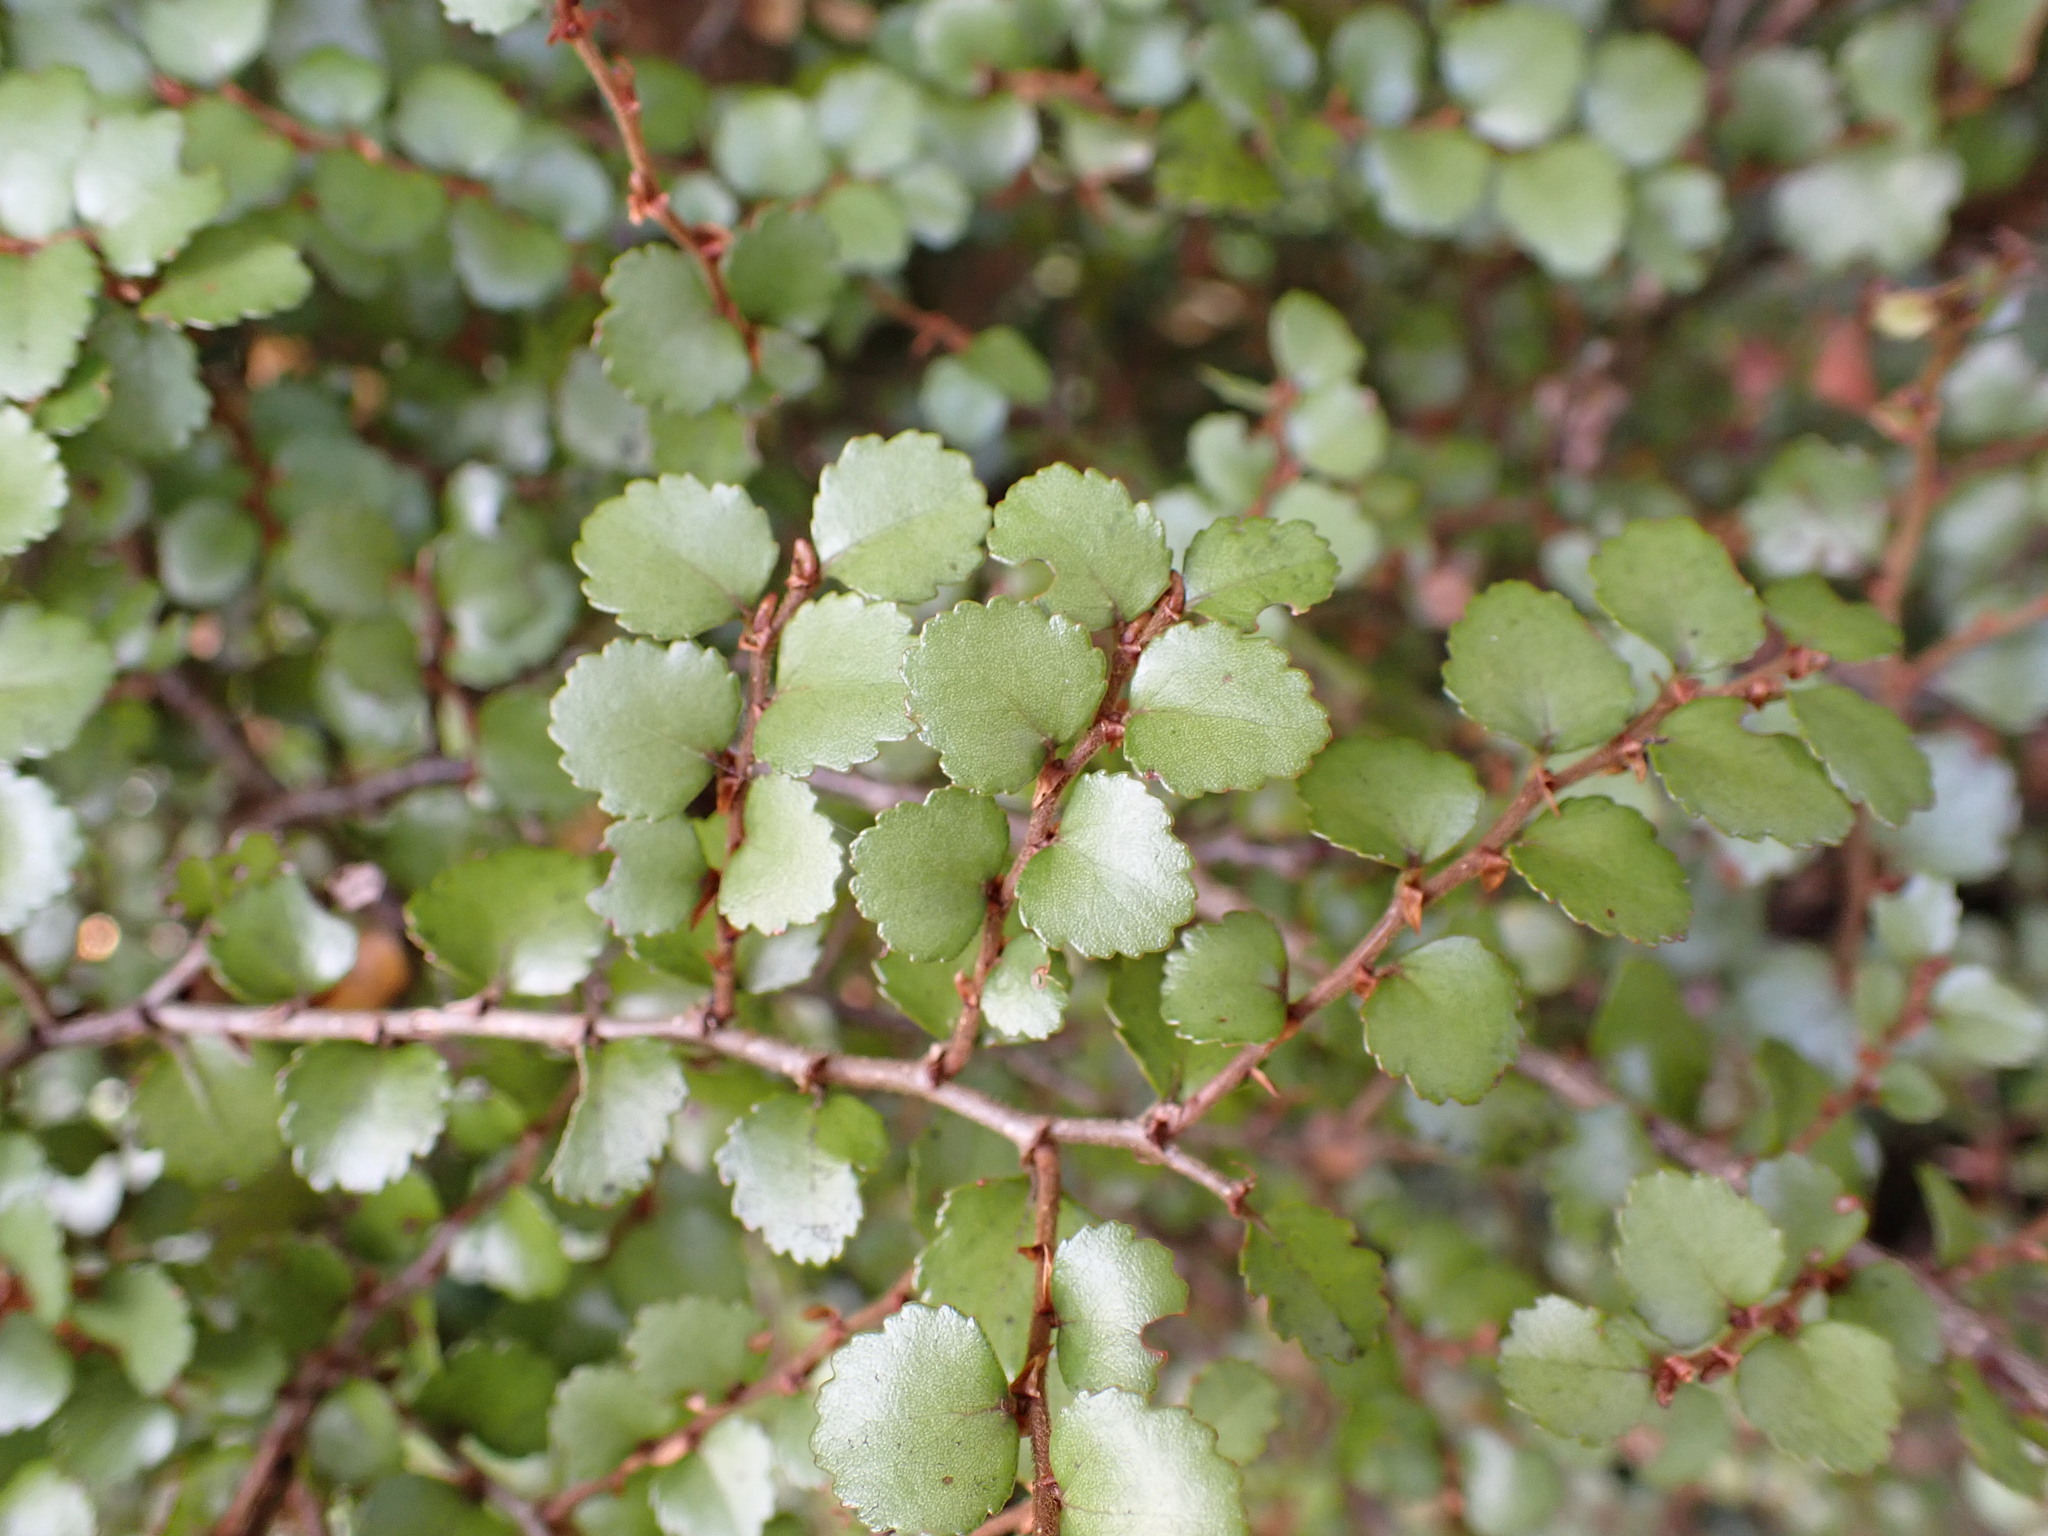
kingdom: Plantae
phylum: Tracheophyta
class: Magnoliopsida
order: Fagales
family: Nothofagaceae
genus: Nothofagus
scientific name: Nothofagus menziesii
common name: Silver beech
